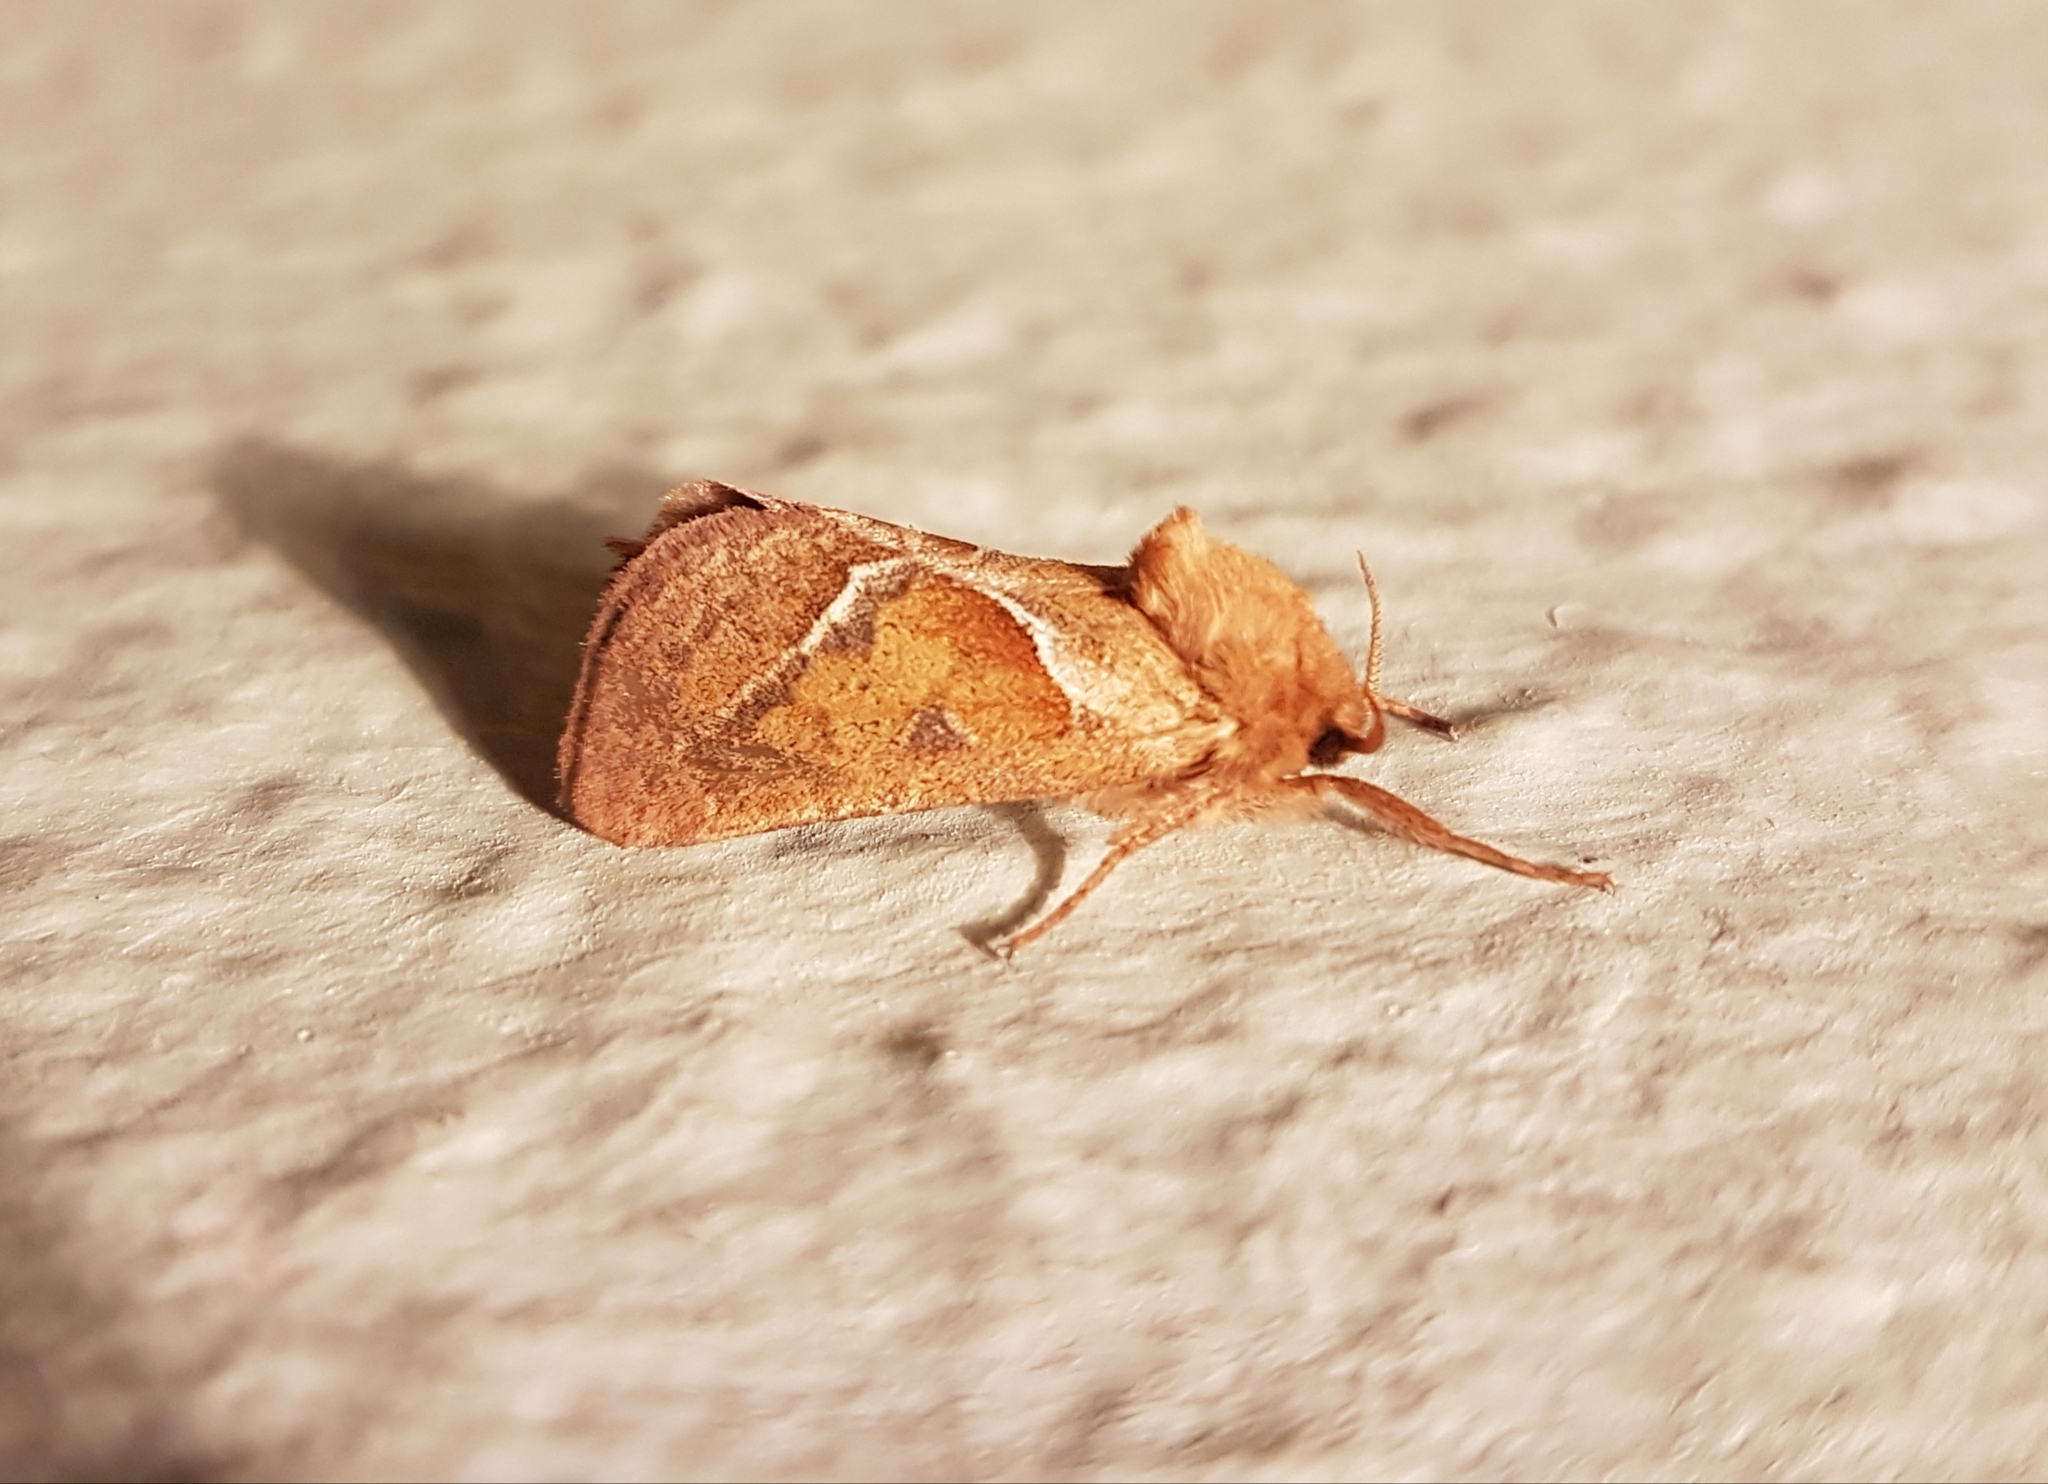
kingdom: Animalia
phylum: Arthropoda
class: Insecta
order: Lepidoptera
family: Hepialidae
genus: Triodia
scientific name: Triodia sylvina
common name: Orange swift
